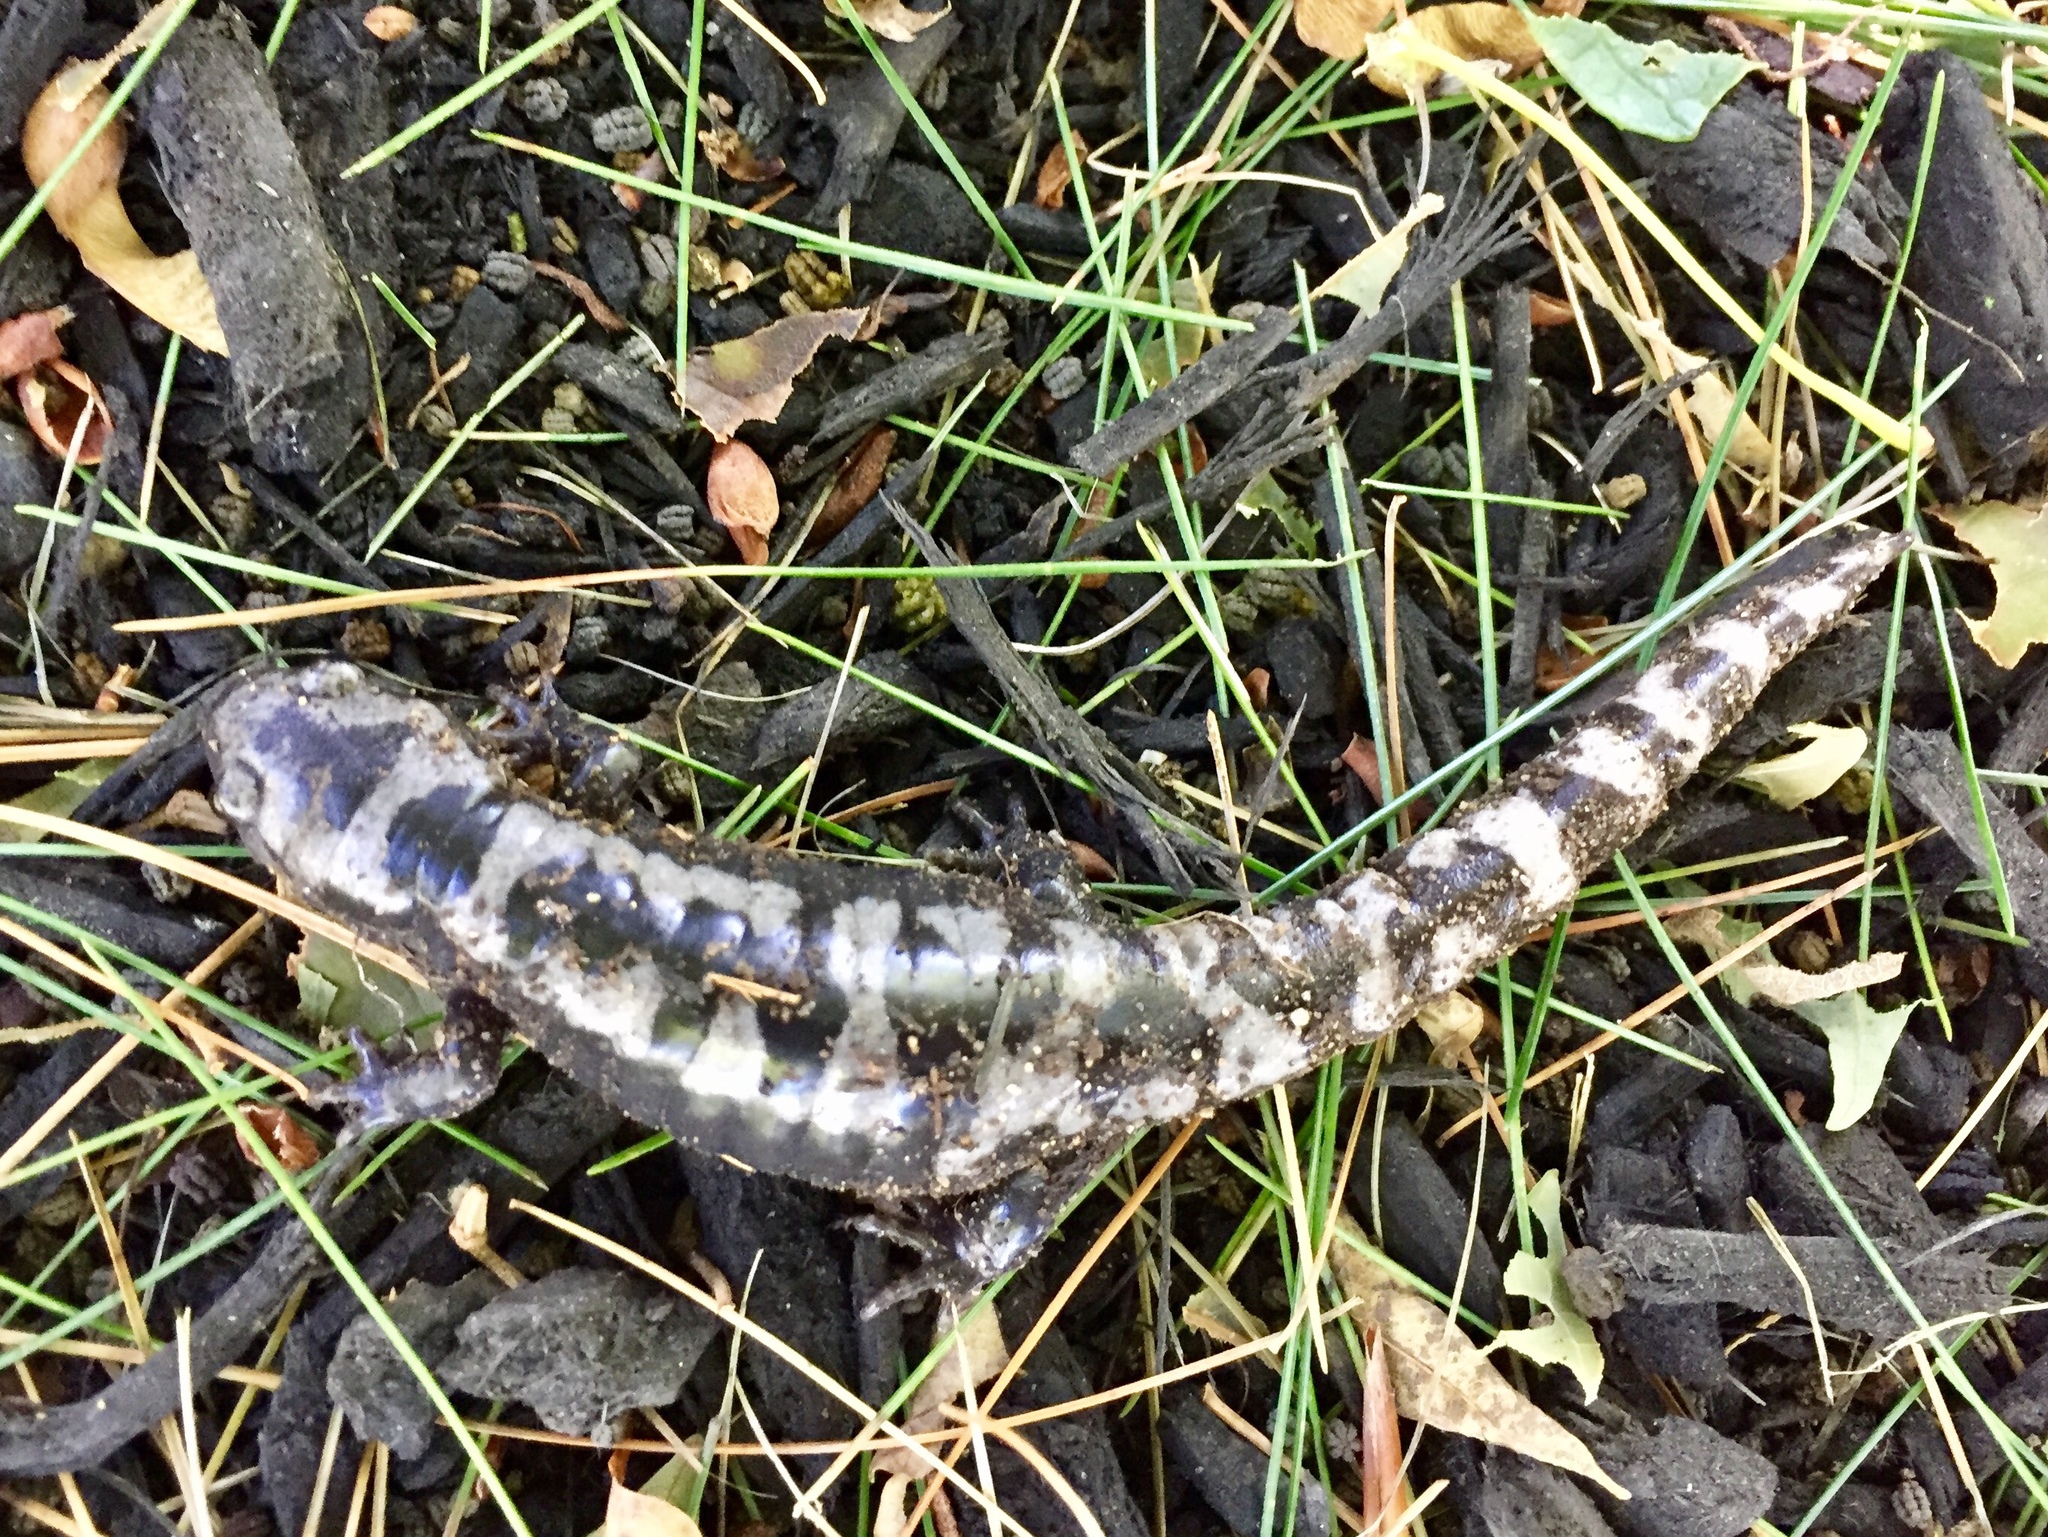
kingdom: Animalia
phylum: Chordata
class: Amphibia
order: Caudata
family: Ambystomatidae
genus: Ambystoma
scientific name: Ambystoma opacum
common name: Marbled salamander
